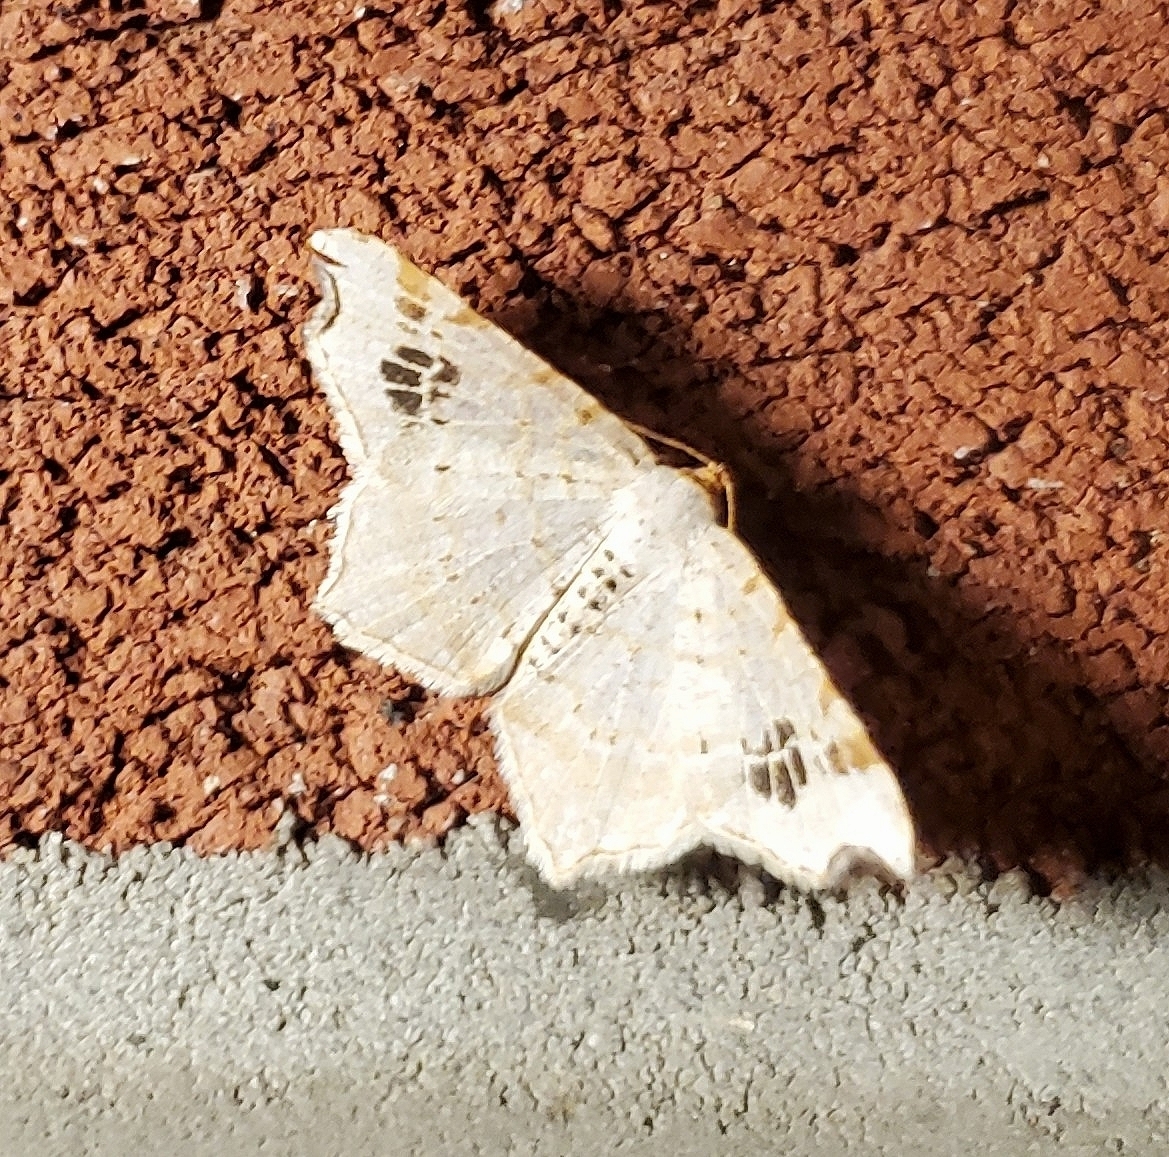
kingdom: Animalia
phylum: Arthropoda
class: Insecta
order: Lepidoptera
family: Geometridae
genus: Macaria
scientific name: Macaria aemulataria
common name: Common angle
